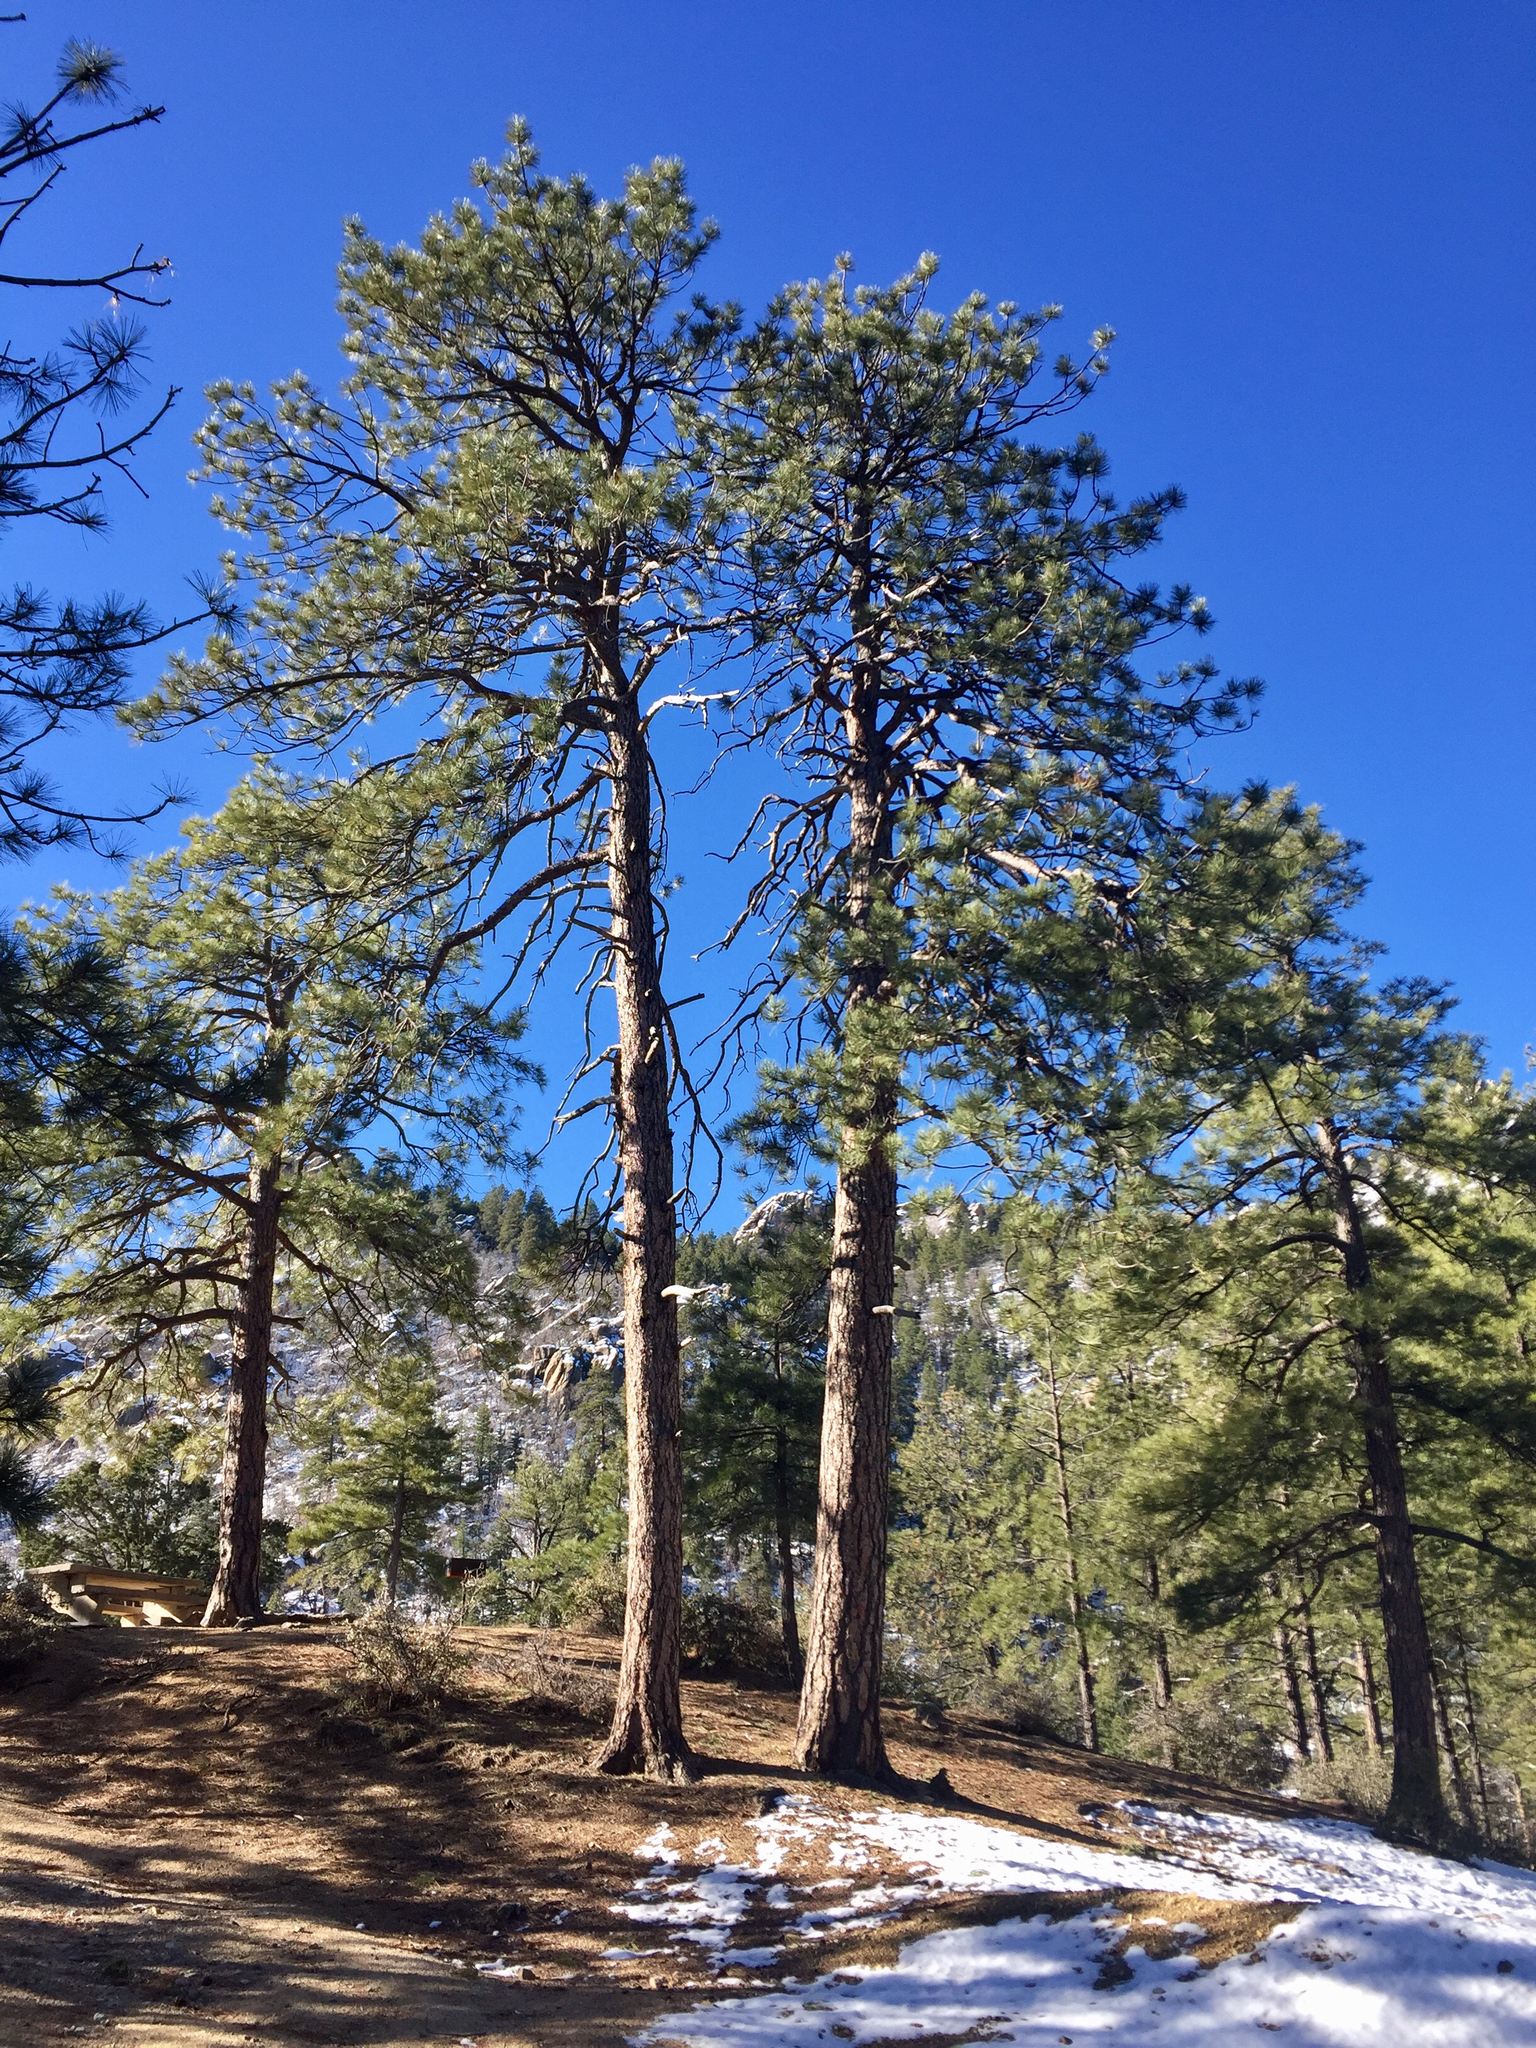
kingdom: Plantae
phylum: Tracheophyta
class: Pinopsida
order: Pinales
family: Pinaceae
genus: Pinus
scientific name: Pinus ponderosa
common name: Western yellow-pine
